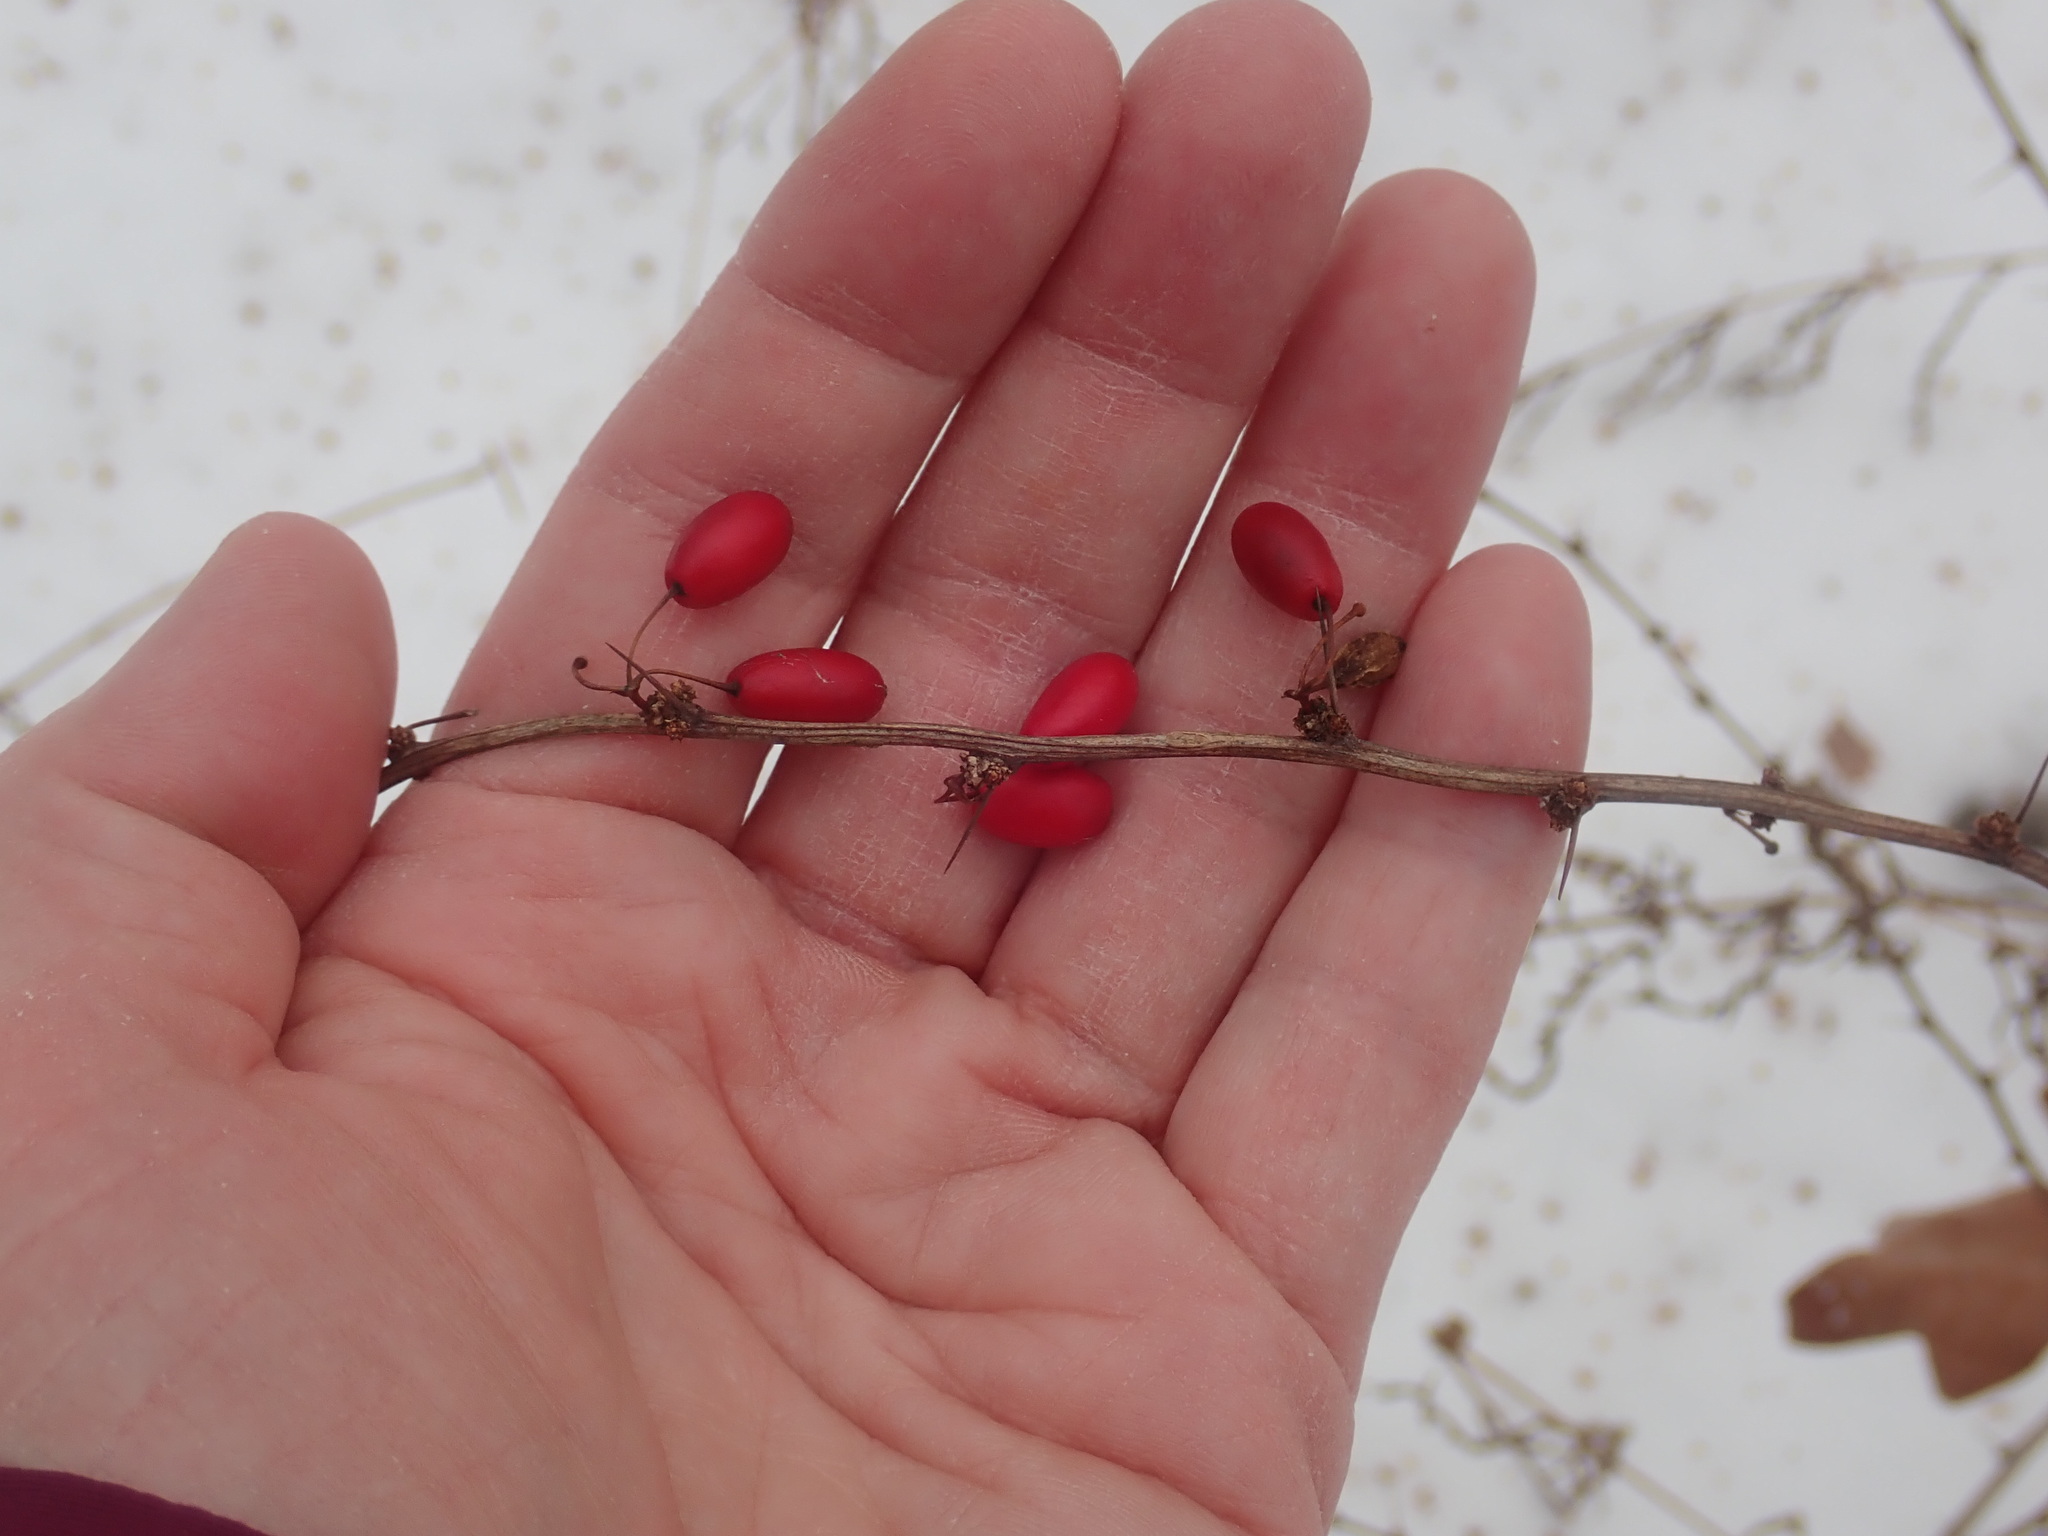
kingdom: Plantae
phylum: Tracheophyta
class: Magnoliopsida
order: Ranunculales
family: Berberidaceae
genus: Berberis
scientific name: Berberis thunbergii
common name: Japanese barberry
